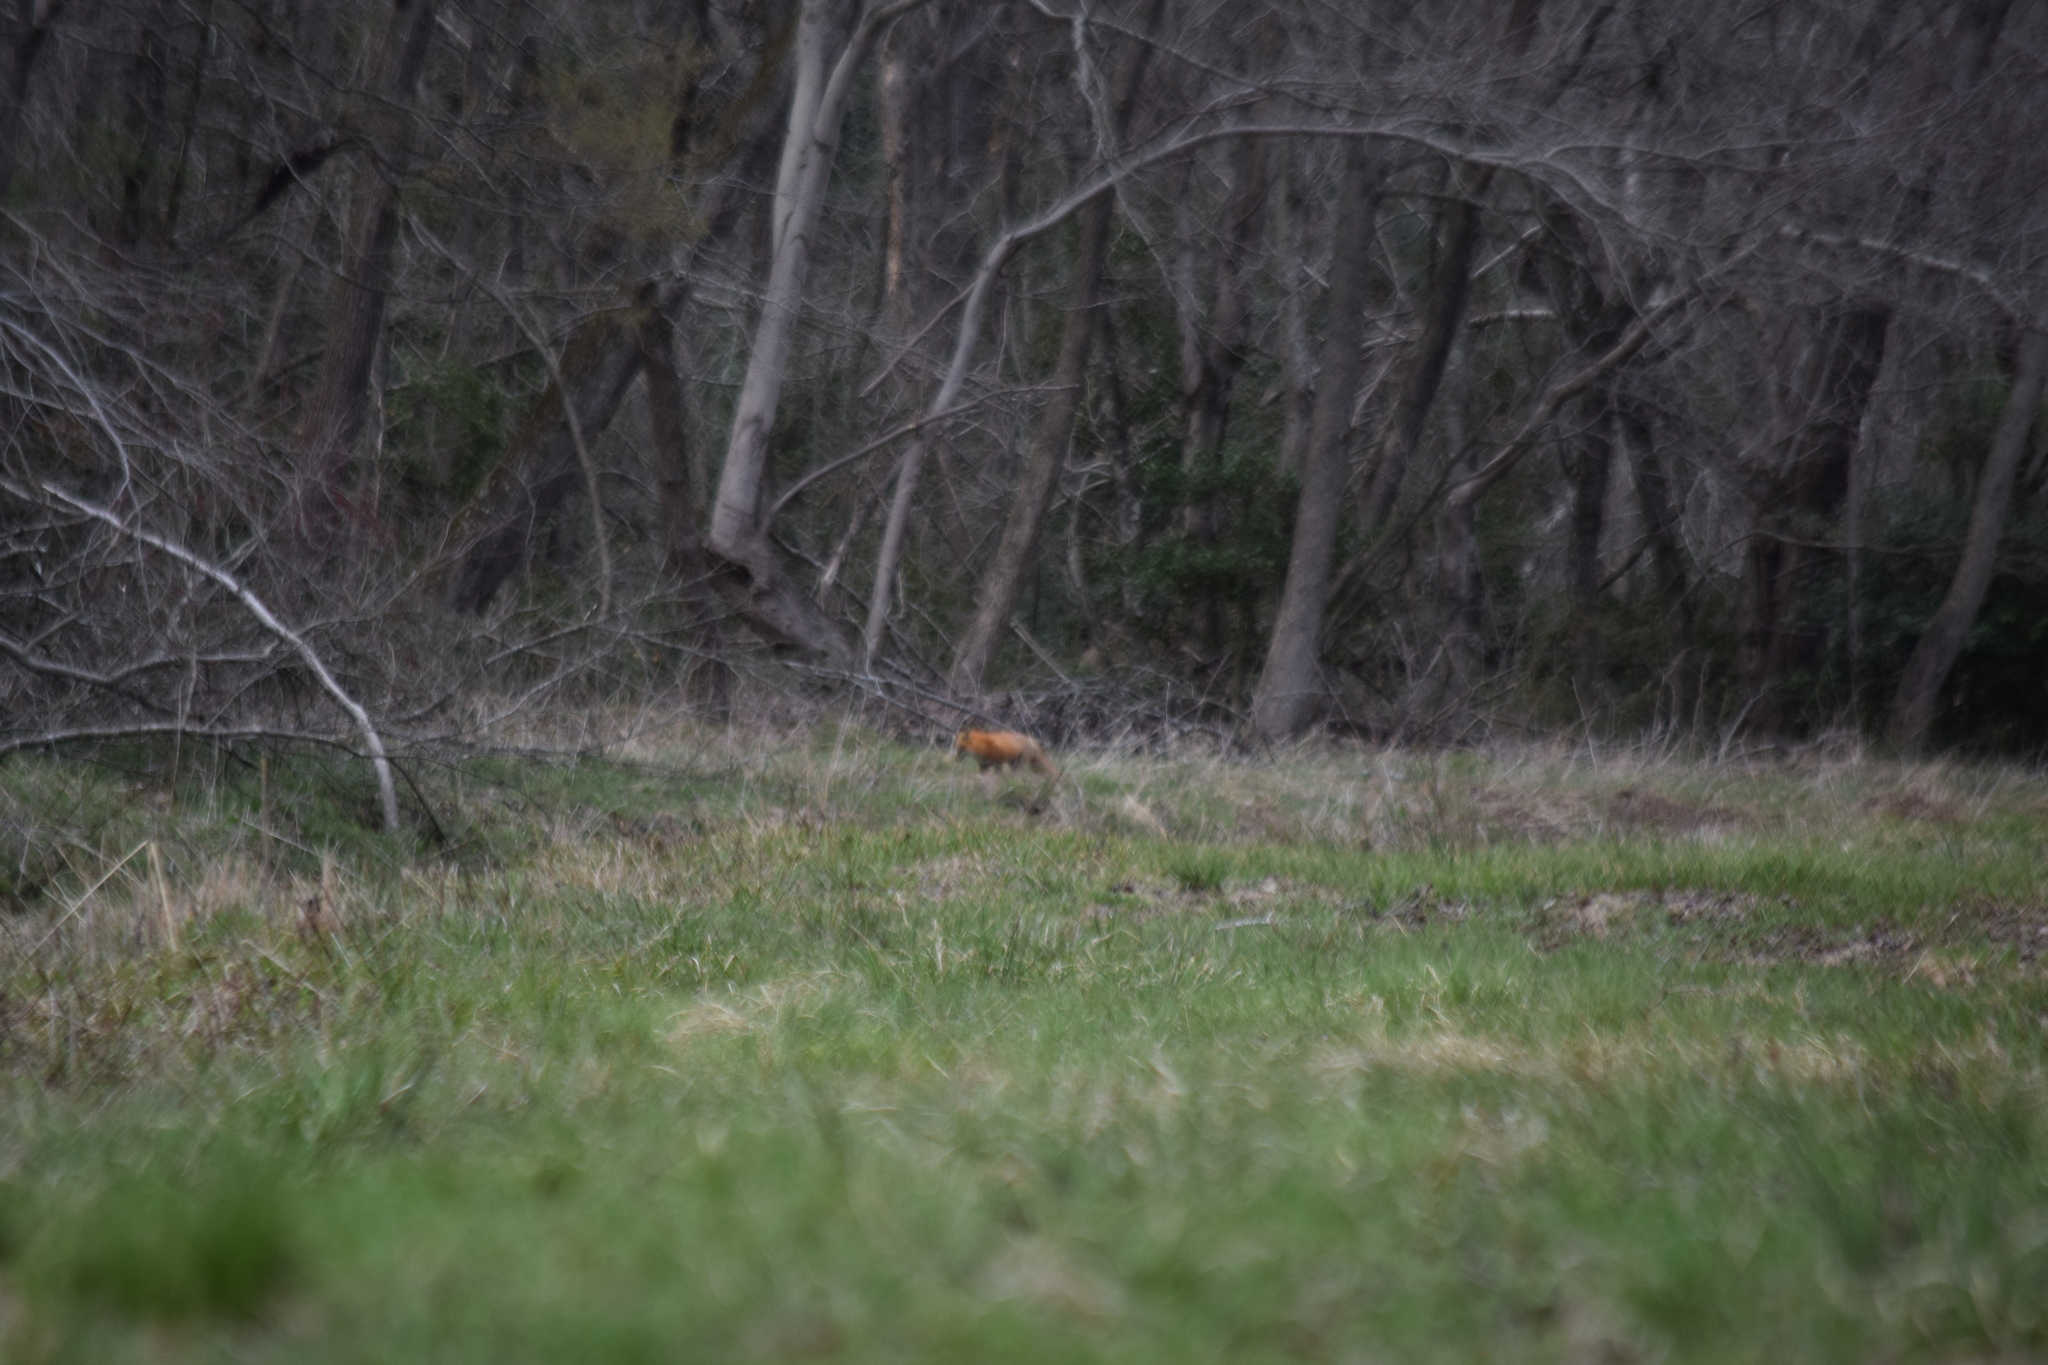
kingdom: Animalia
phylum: Chordata
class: Mammalia
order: Carnivora
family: Canidae
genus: Vulpes
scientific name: Vulpes vulpes
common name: Red fox
